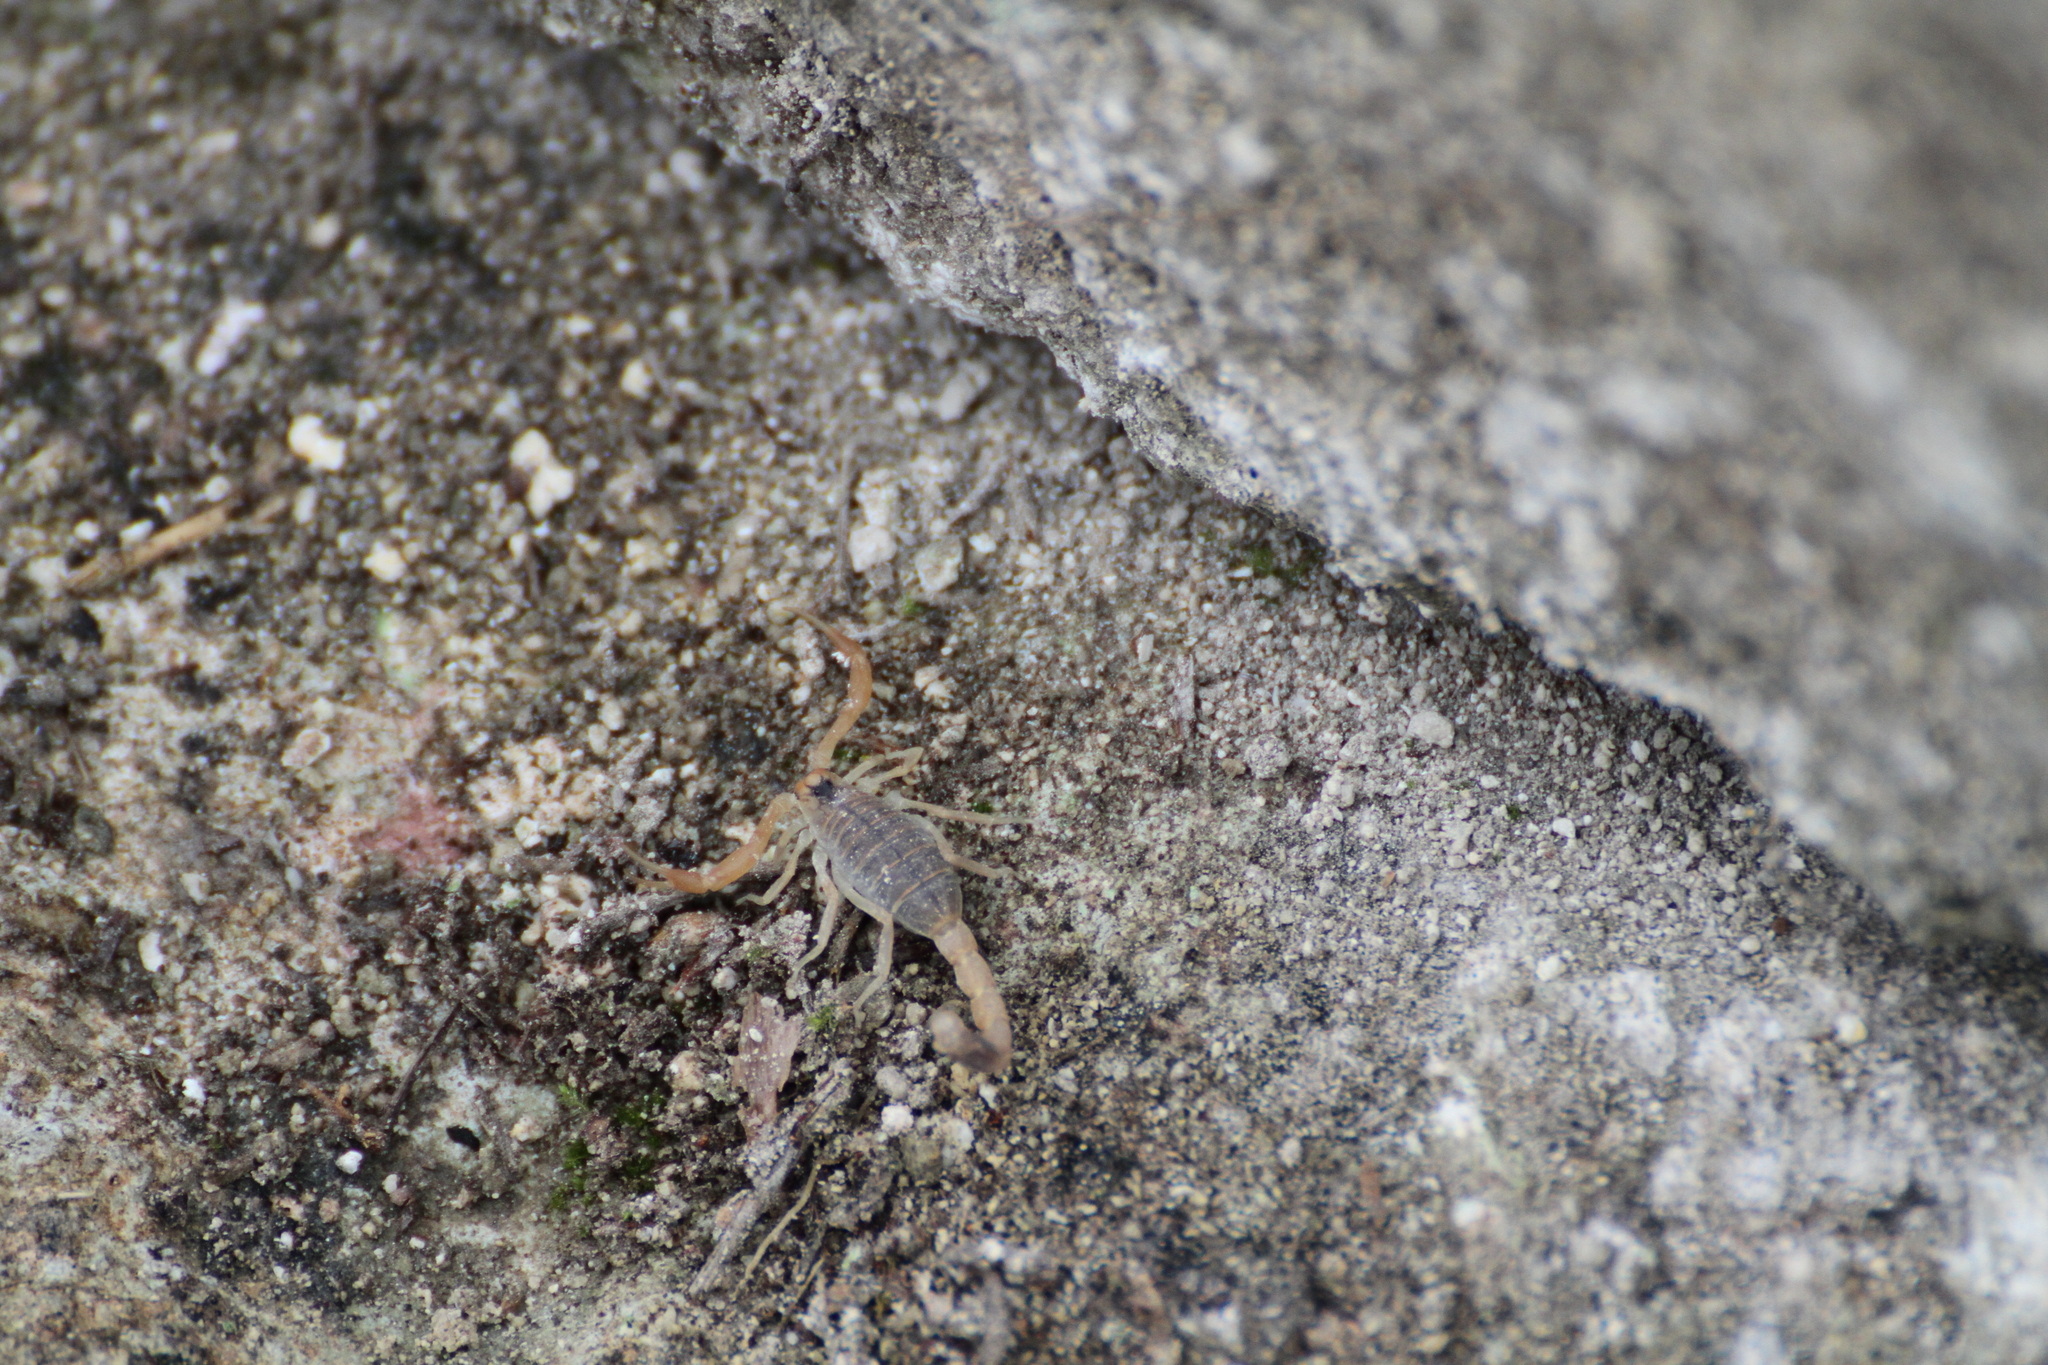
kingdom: Animalia
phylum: Arthropoda
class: Arachnida
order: Scorpiones
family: Buthidae
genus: Buthus
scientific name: Buthus occitanus
